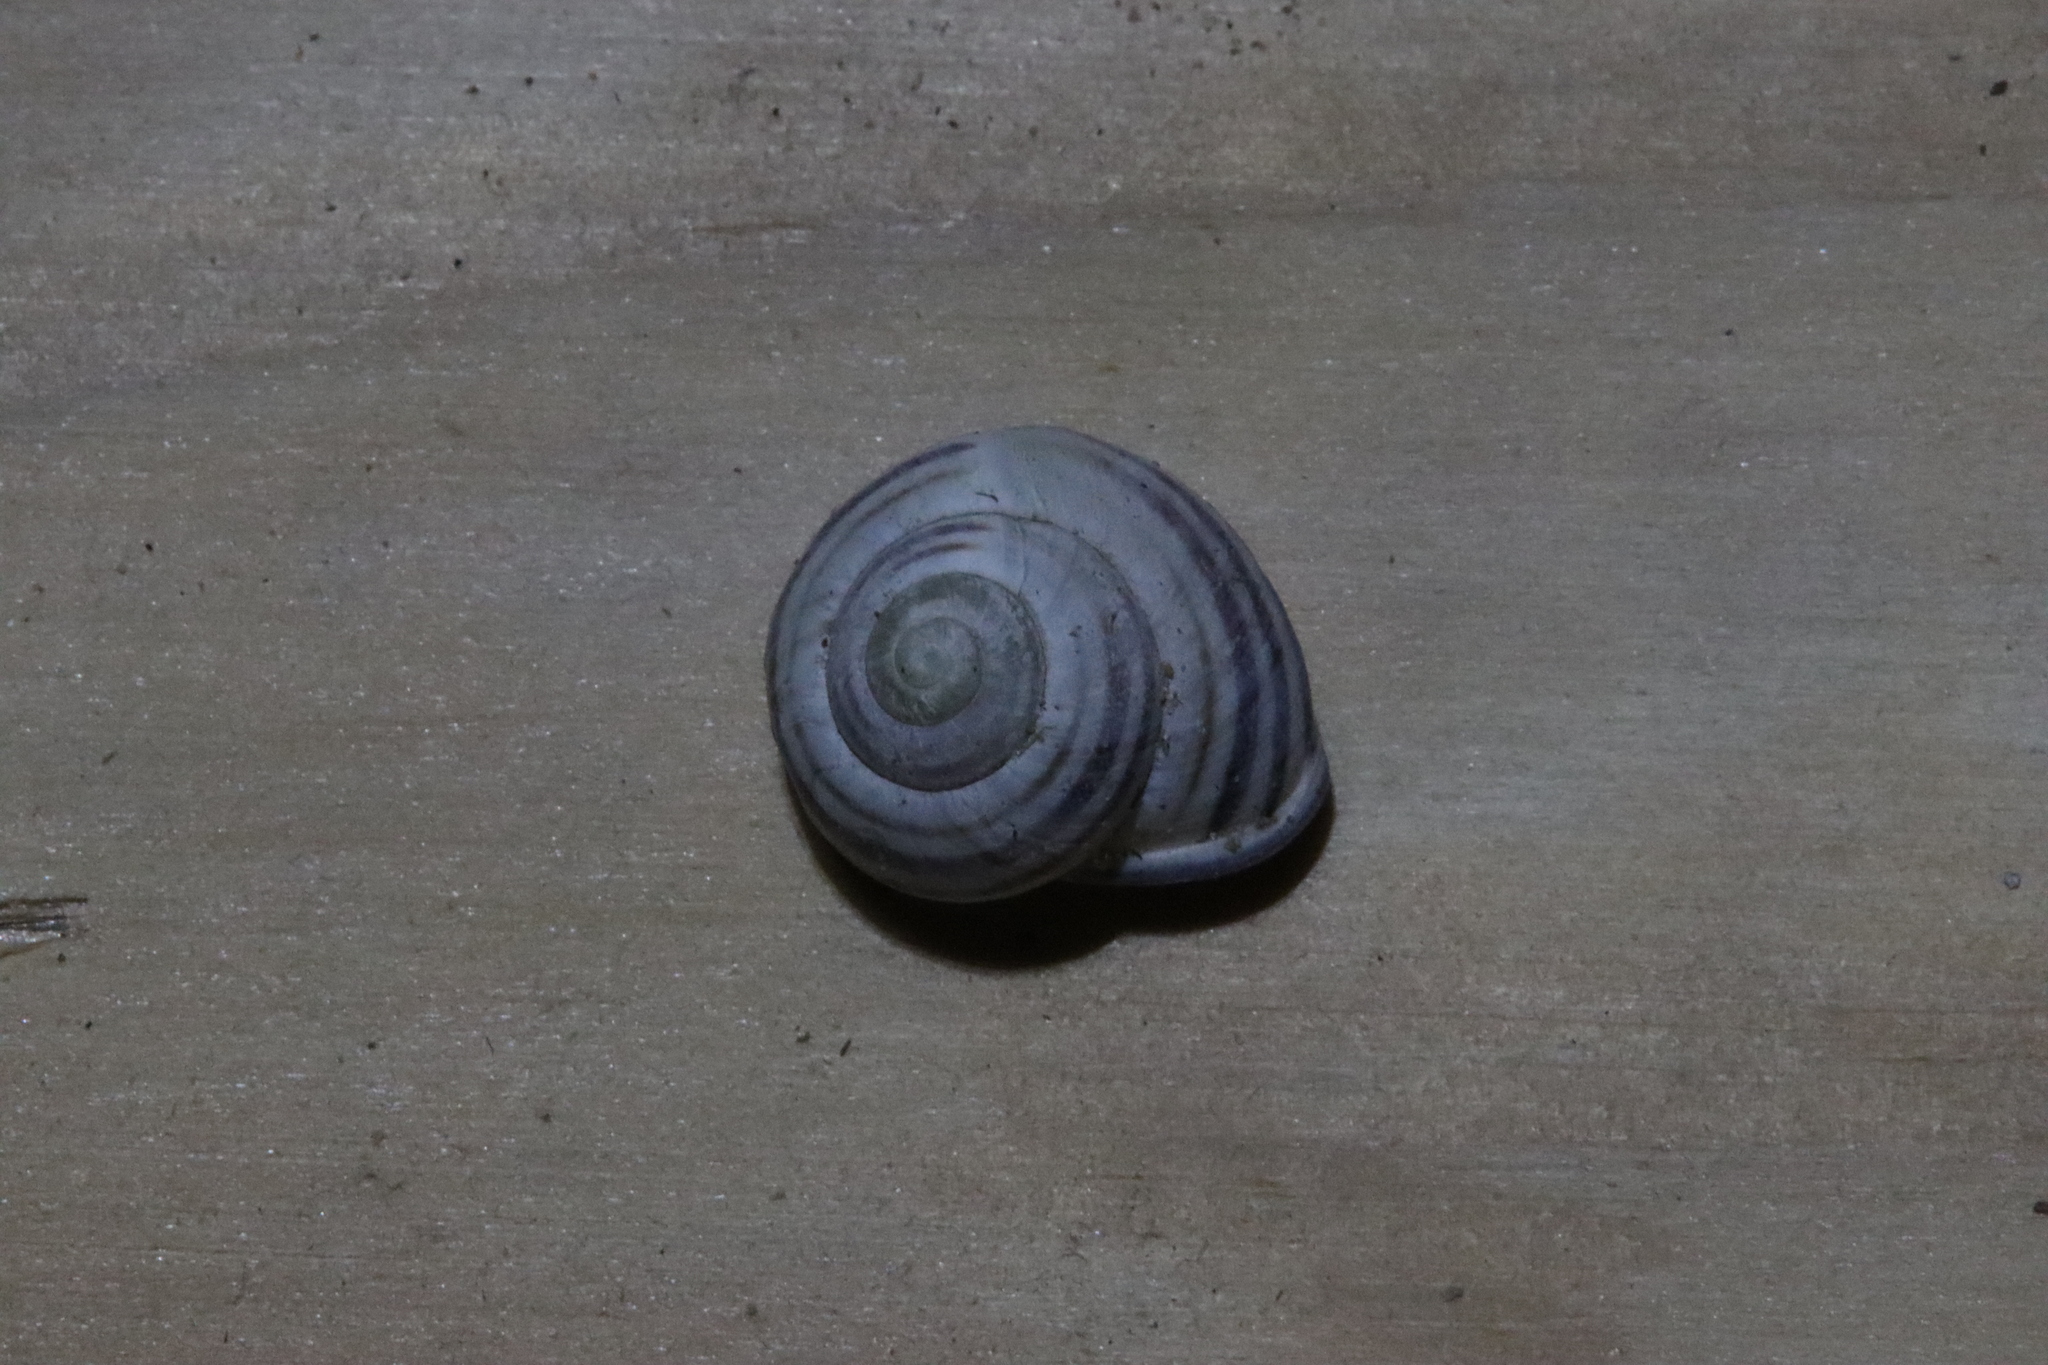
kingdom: Animalia
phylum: Mollusca
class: Gastropoda
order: Stylommatophora
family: Helicidae
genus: Cepaea
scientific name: Cepaea nemoralis
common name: Grovesnail
